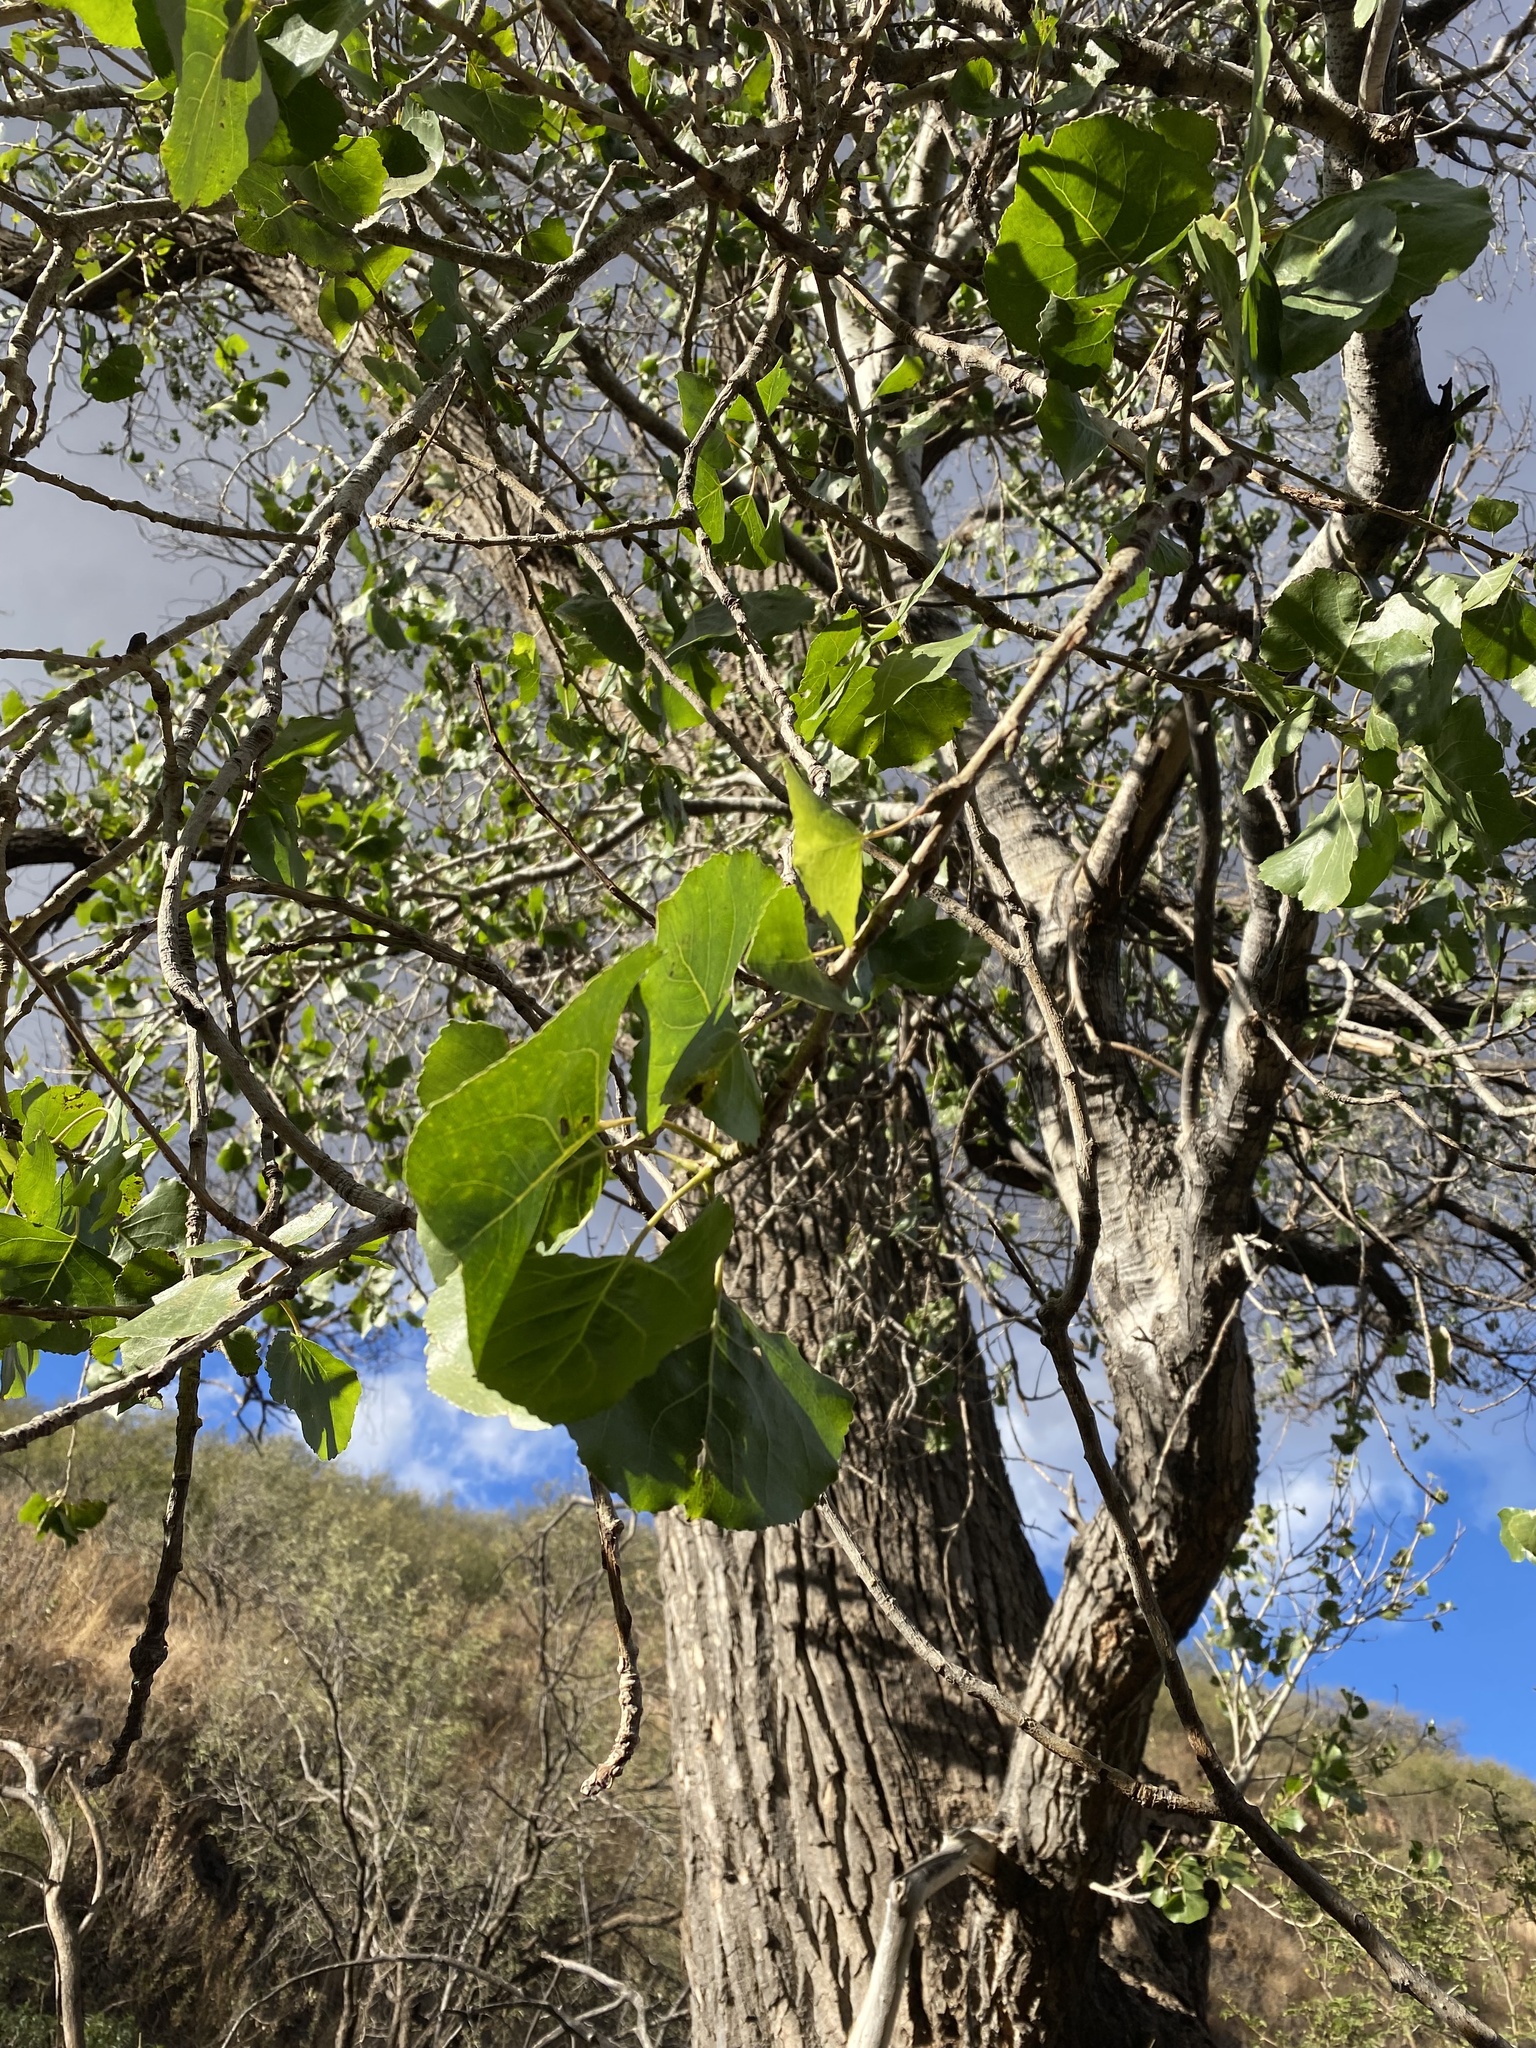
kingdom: Plantae
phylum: Tracheophyta
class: Magnoliopsida
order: Malpighiales
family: Salicaceae
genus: Populus
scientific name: Populus fremontii
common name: Fremont's cottonwood
